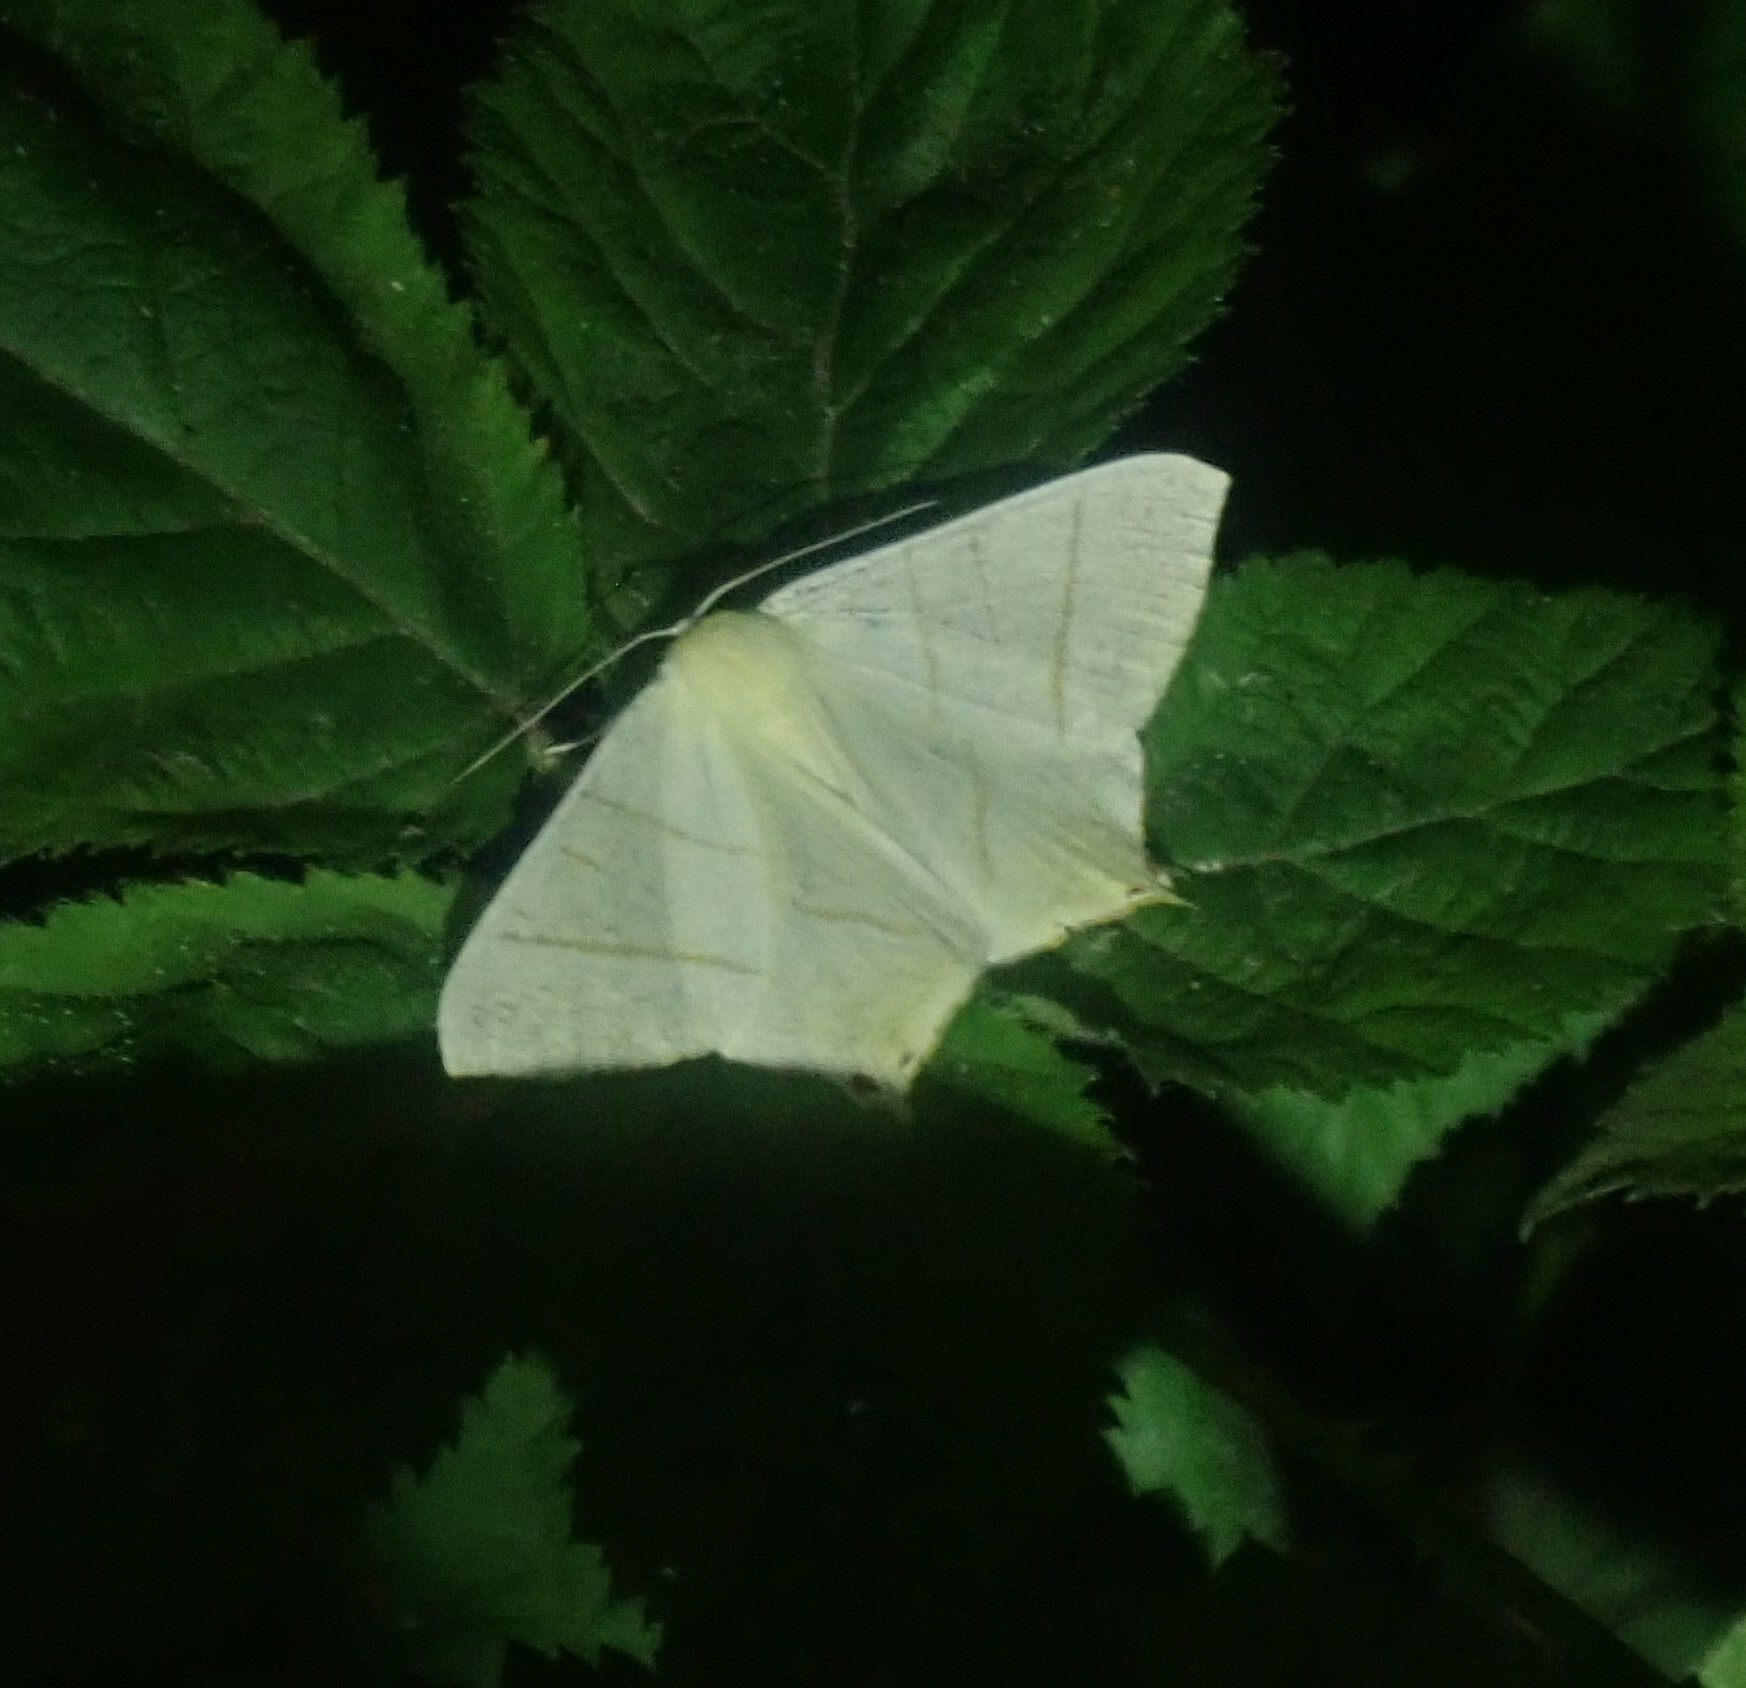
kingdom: Animalia
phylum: Arthropoda
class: Insecta
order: Lepidoptera
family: Geometridae
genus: Ourapteryx
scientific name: Ourapteryx sambucaria
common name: Swallow-tailed moth
